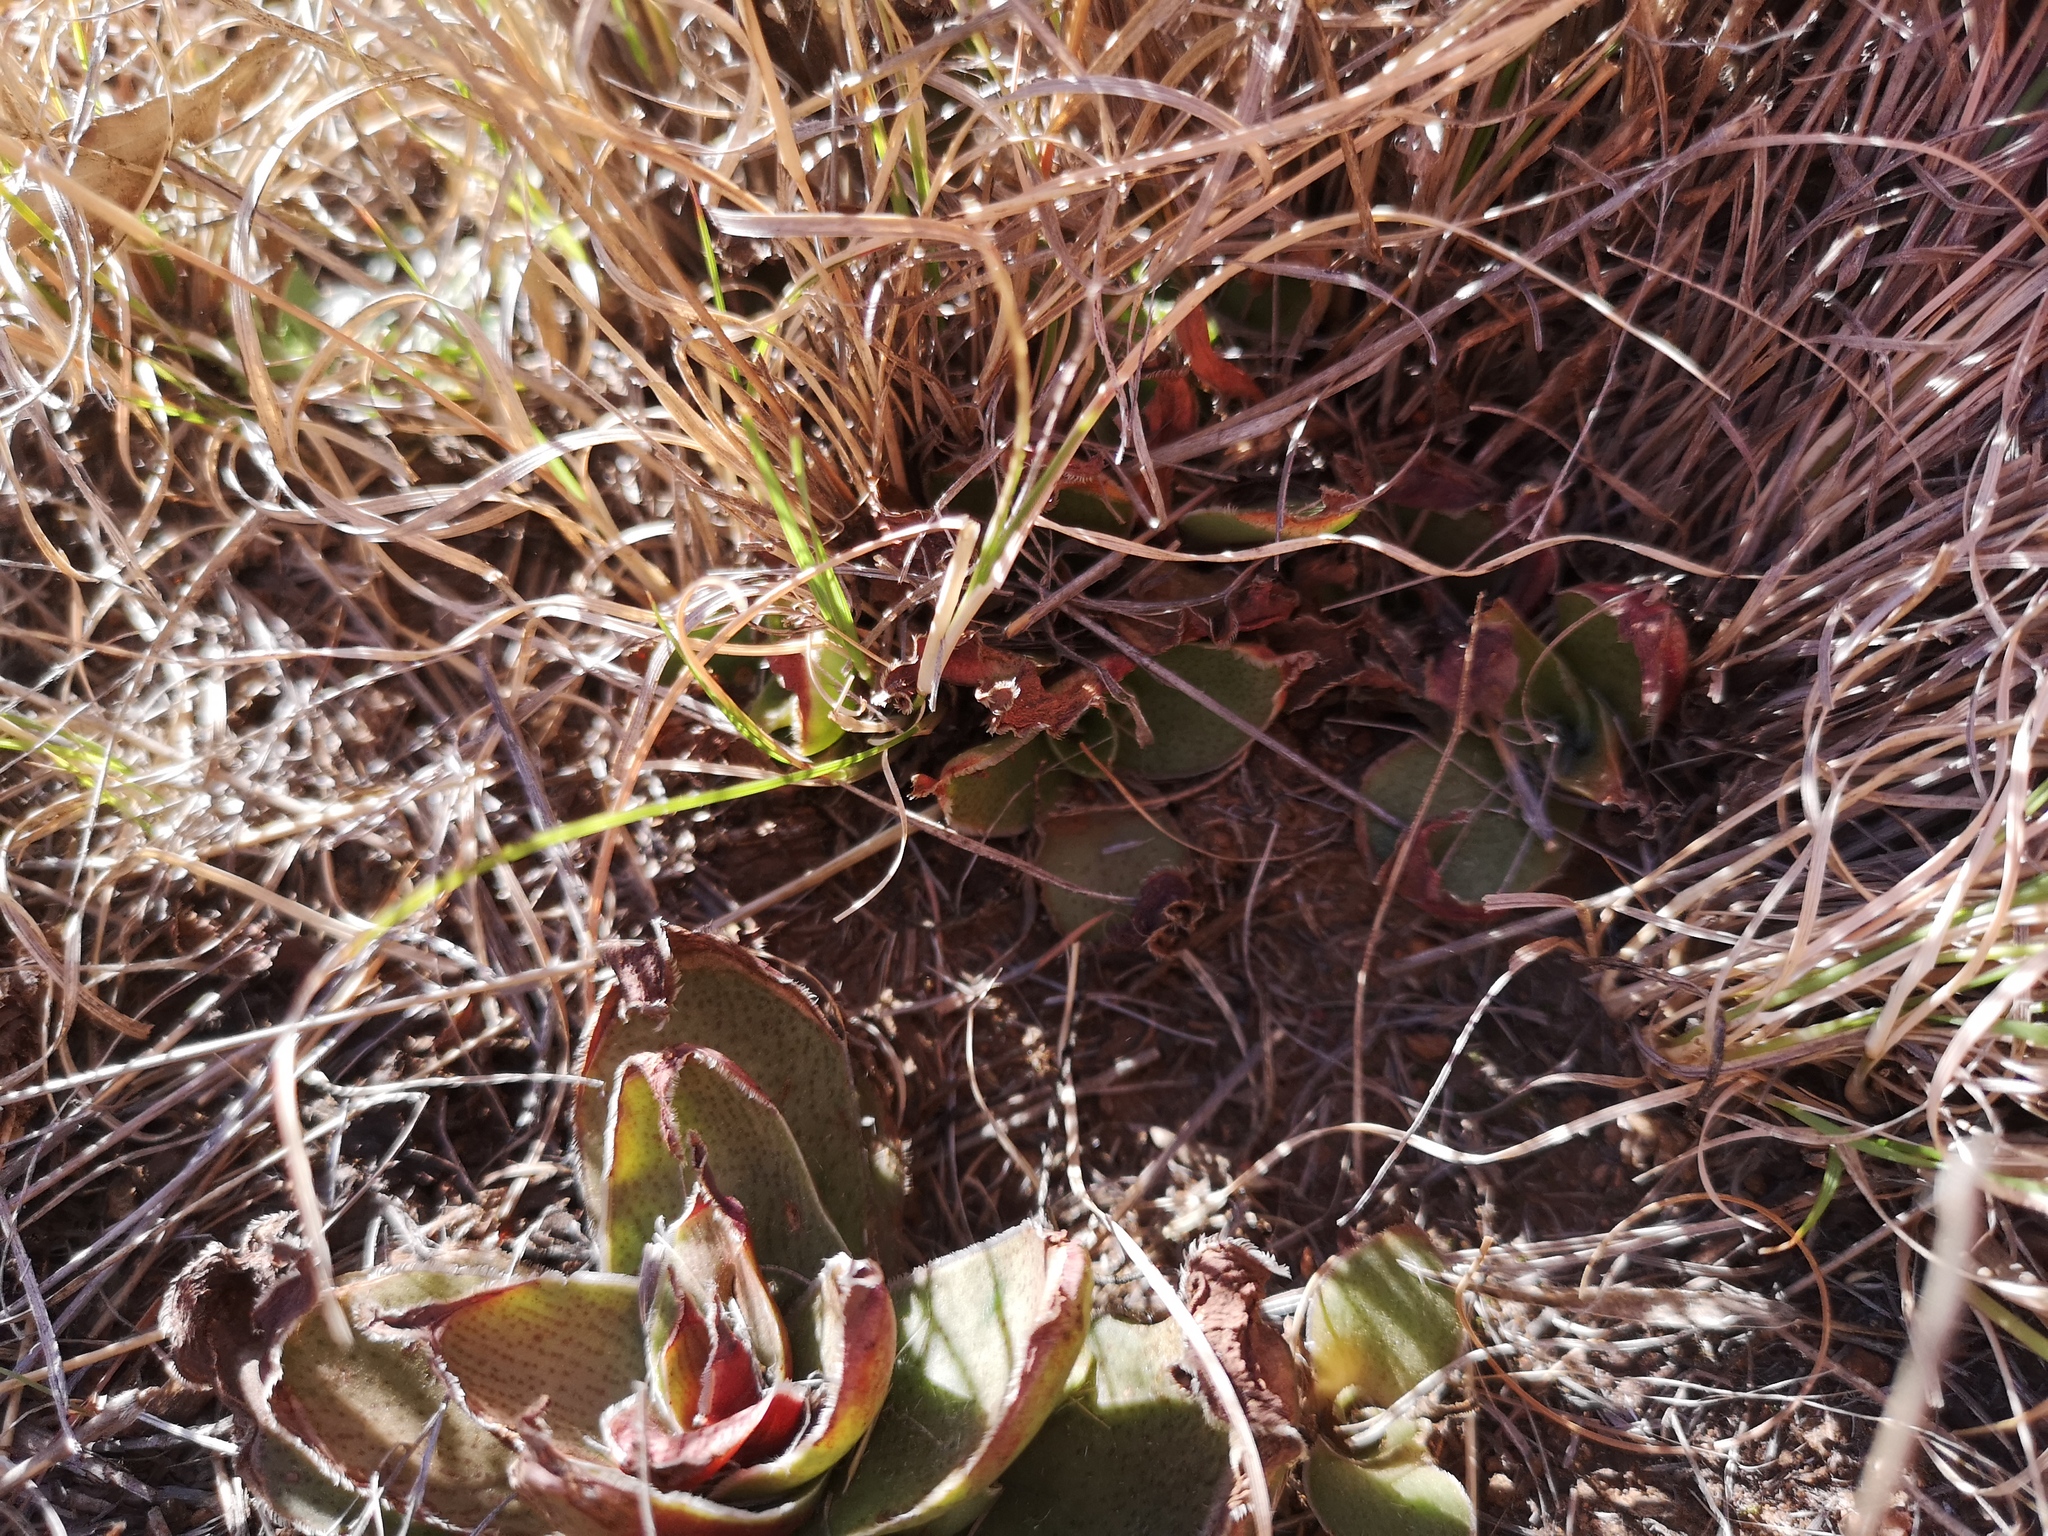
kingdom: Plantae
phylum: Tracheophyta
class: Magnoliopsida
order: Saxifragales
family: Crassulaceae
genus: Crassula
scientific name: Crassula capitella
